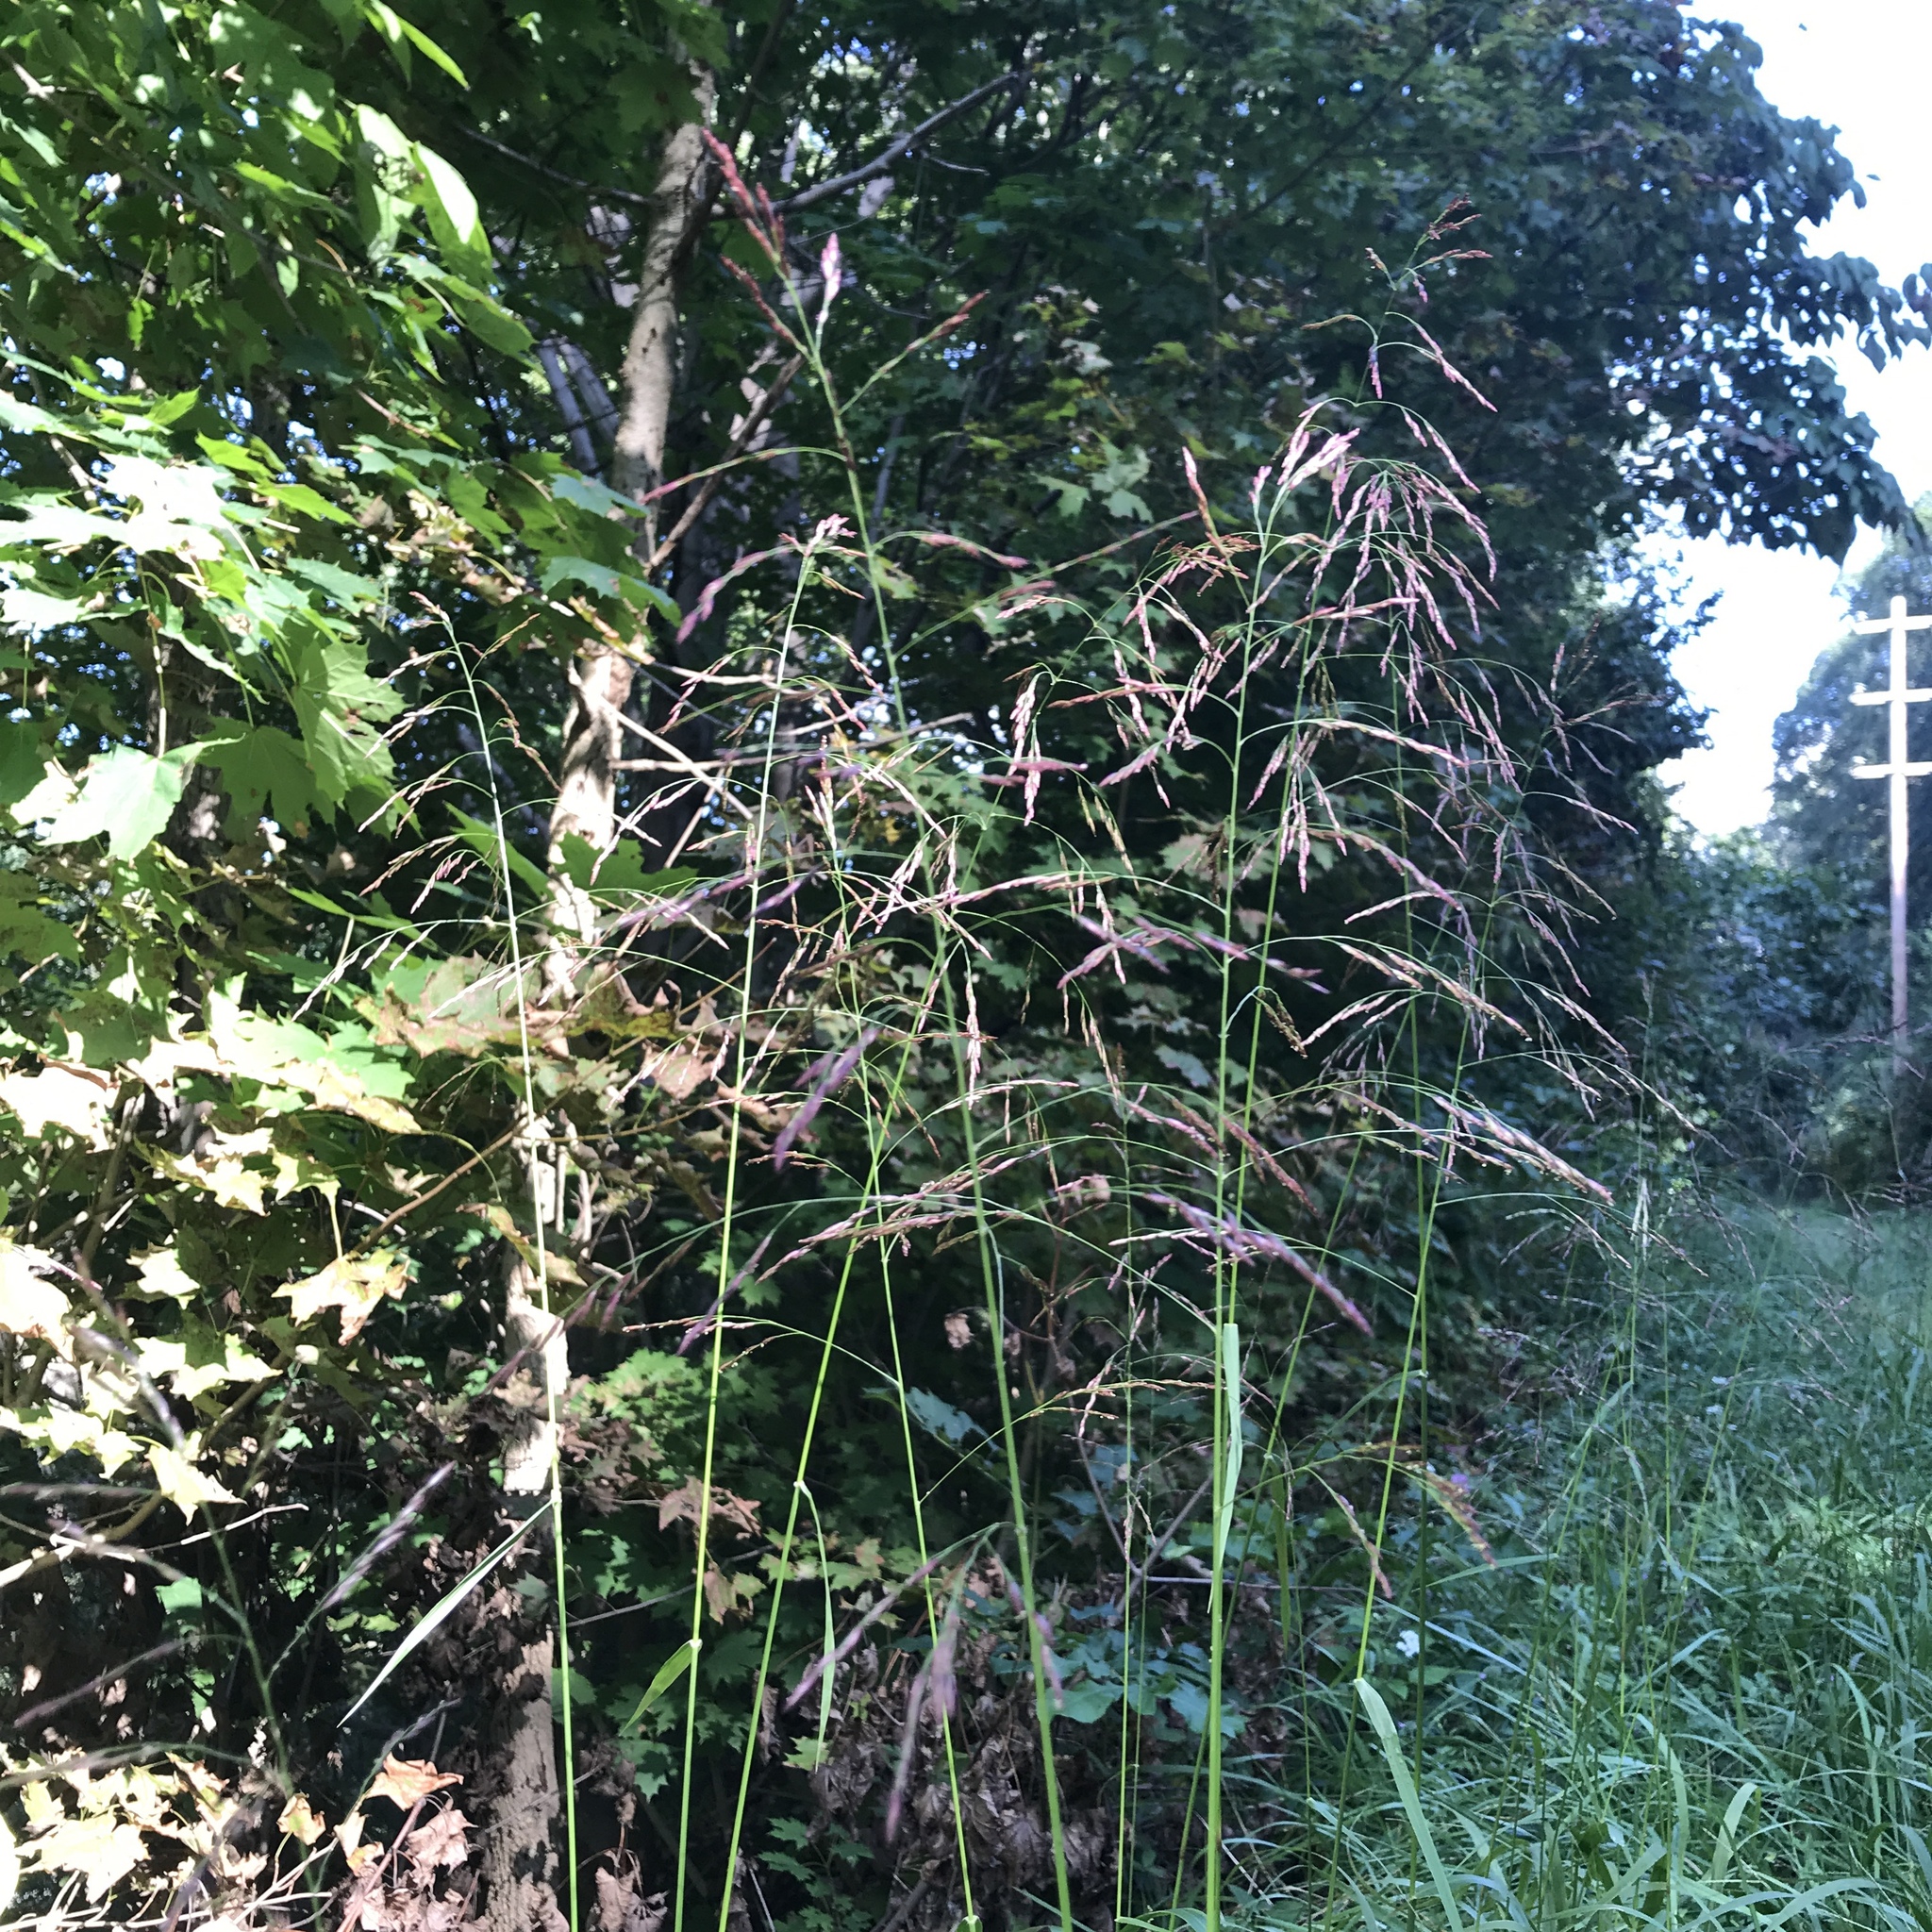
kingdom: Plantae
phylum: Tracheophyta
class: Liliopsida
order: Poales
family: Poaceae
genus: Tridens
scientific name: Tridens flavus
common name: Purpletop
